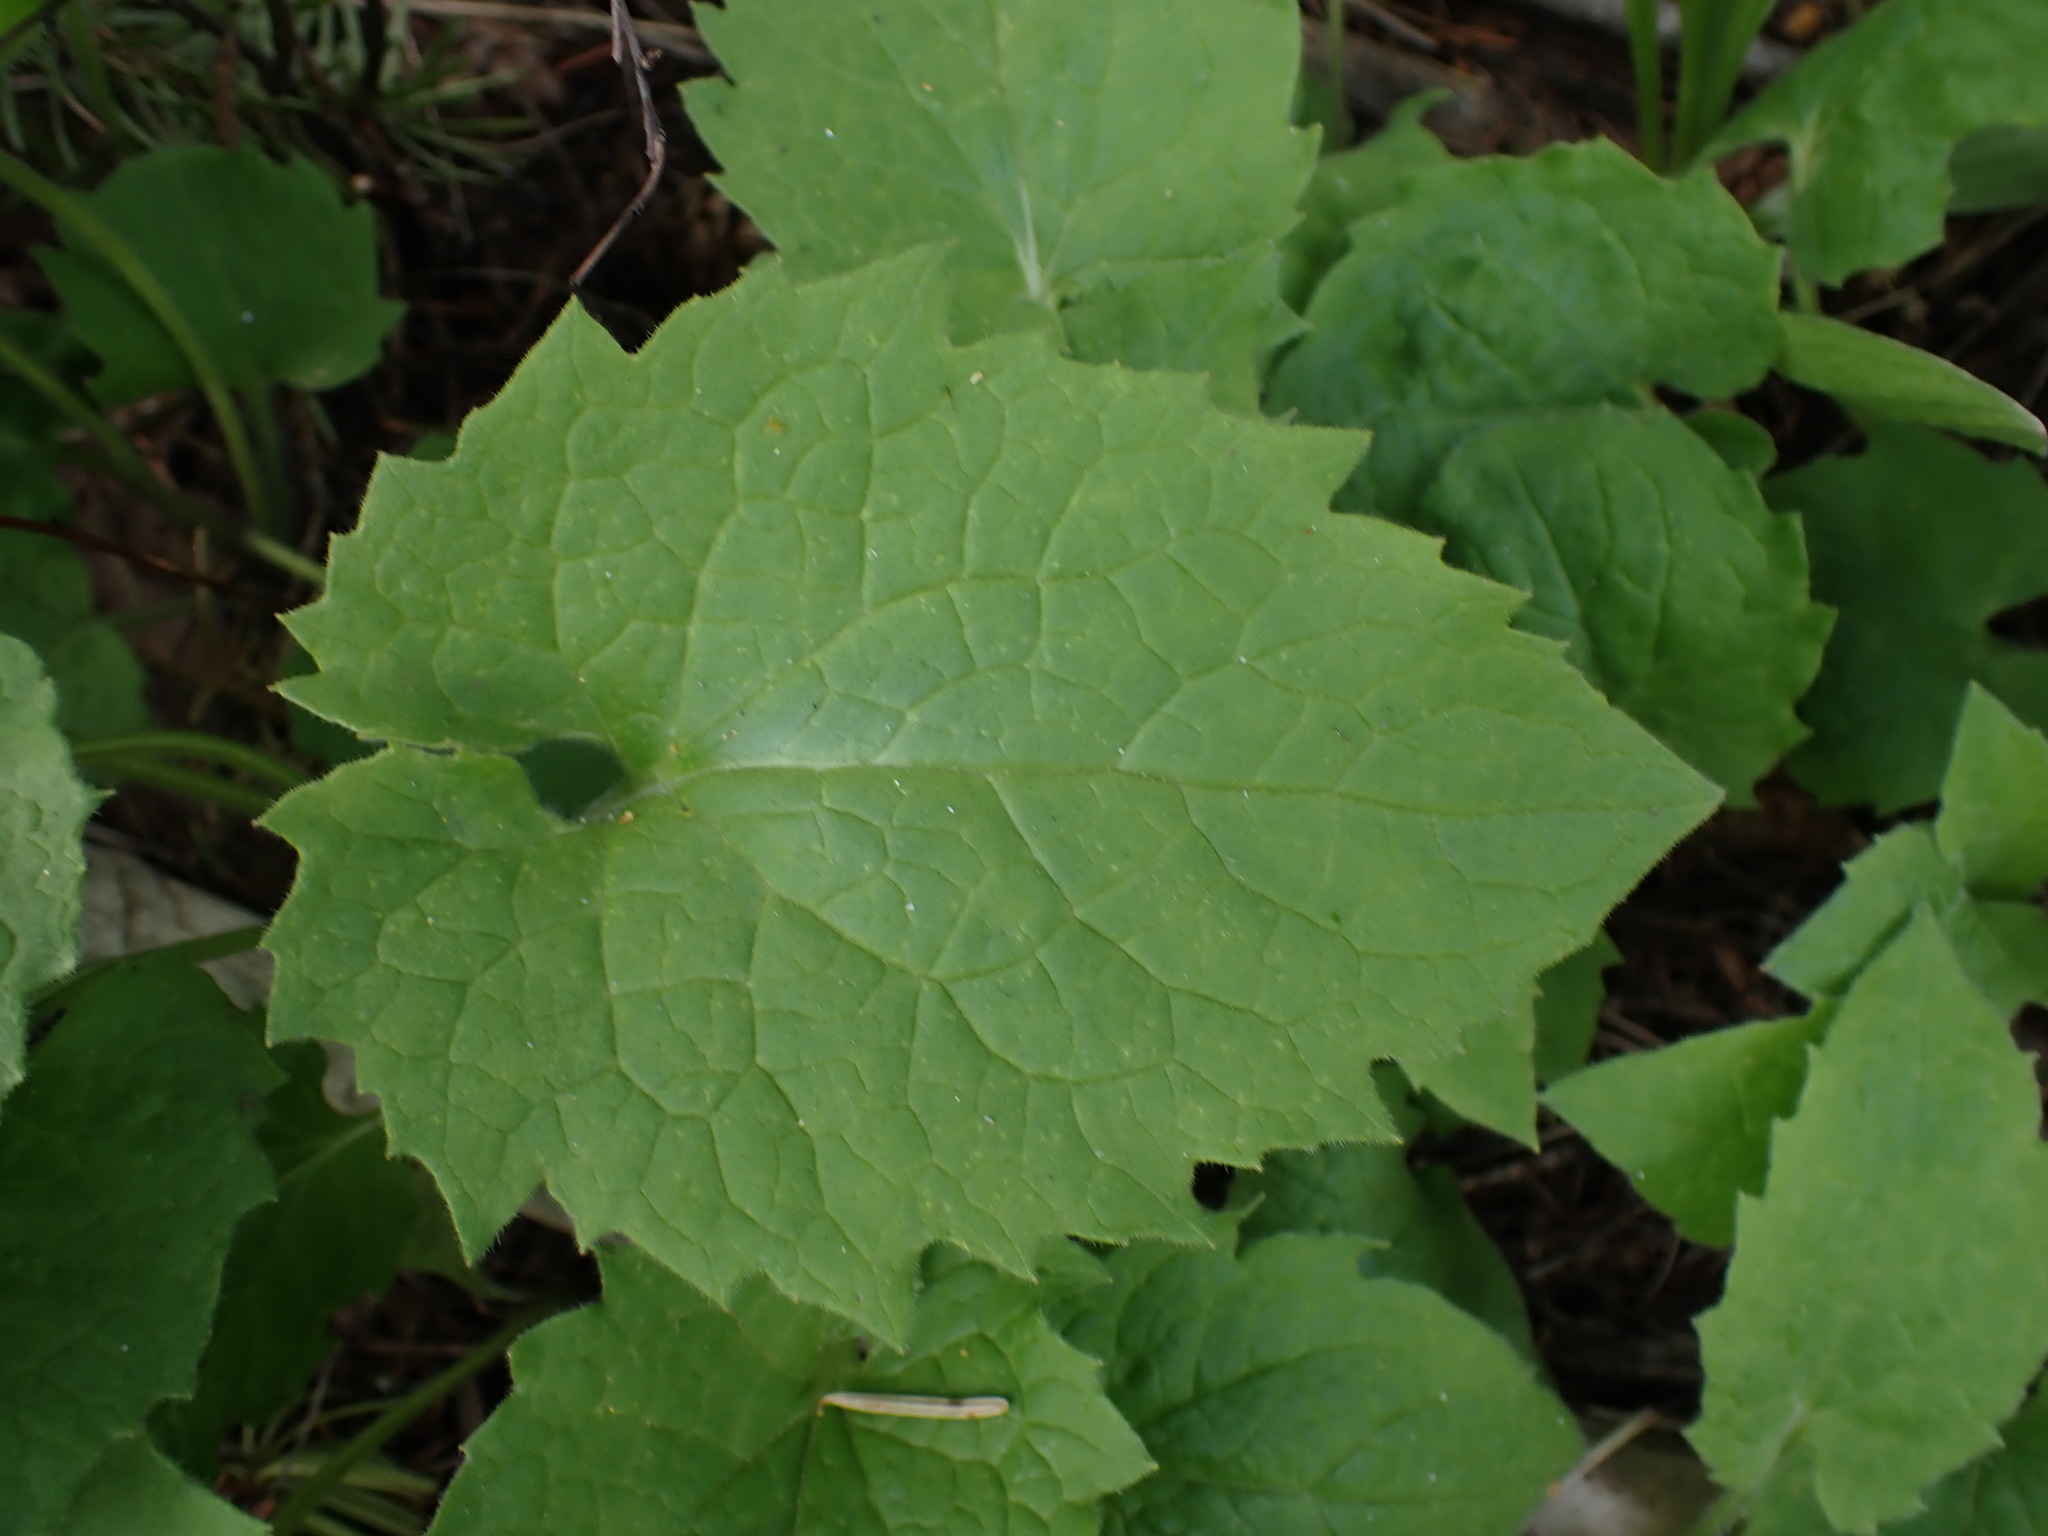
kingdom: Plantae
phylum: Tracheophyta
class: Magnoliopsida
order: Asterales
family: Asteraceae
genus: Arnica
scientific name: Arnica cordifolia
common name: Heart-leaf arnica
